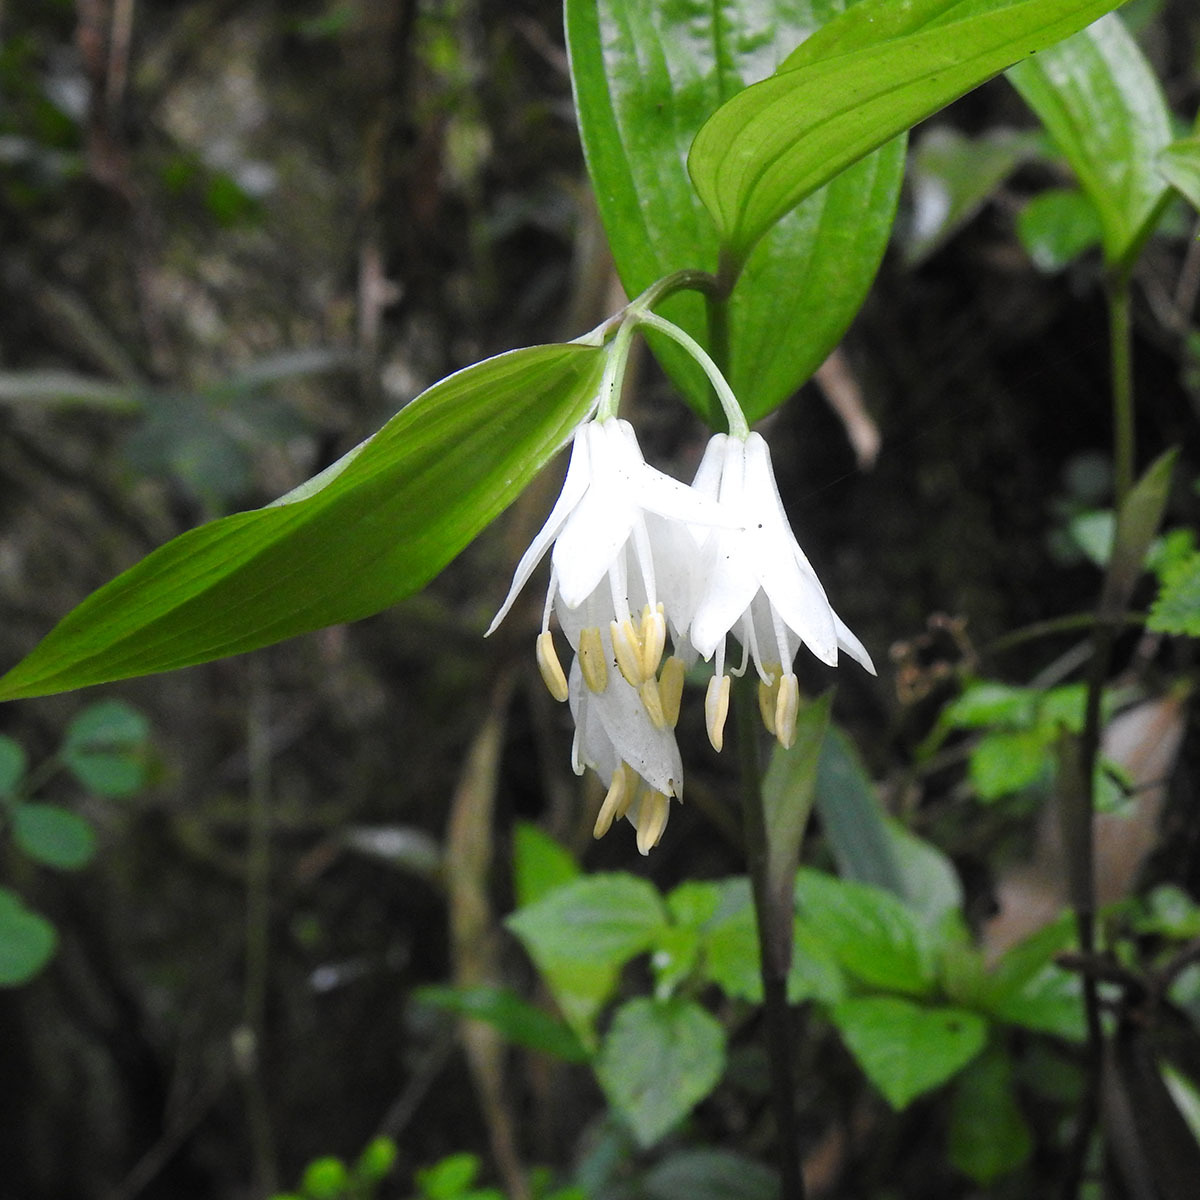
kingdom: Plantae
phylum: Tracheophyta
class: Liliopsida
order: Liliales
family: Colchicaceae
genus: Disporum
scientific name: Disporum leucanthum
